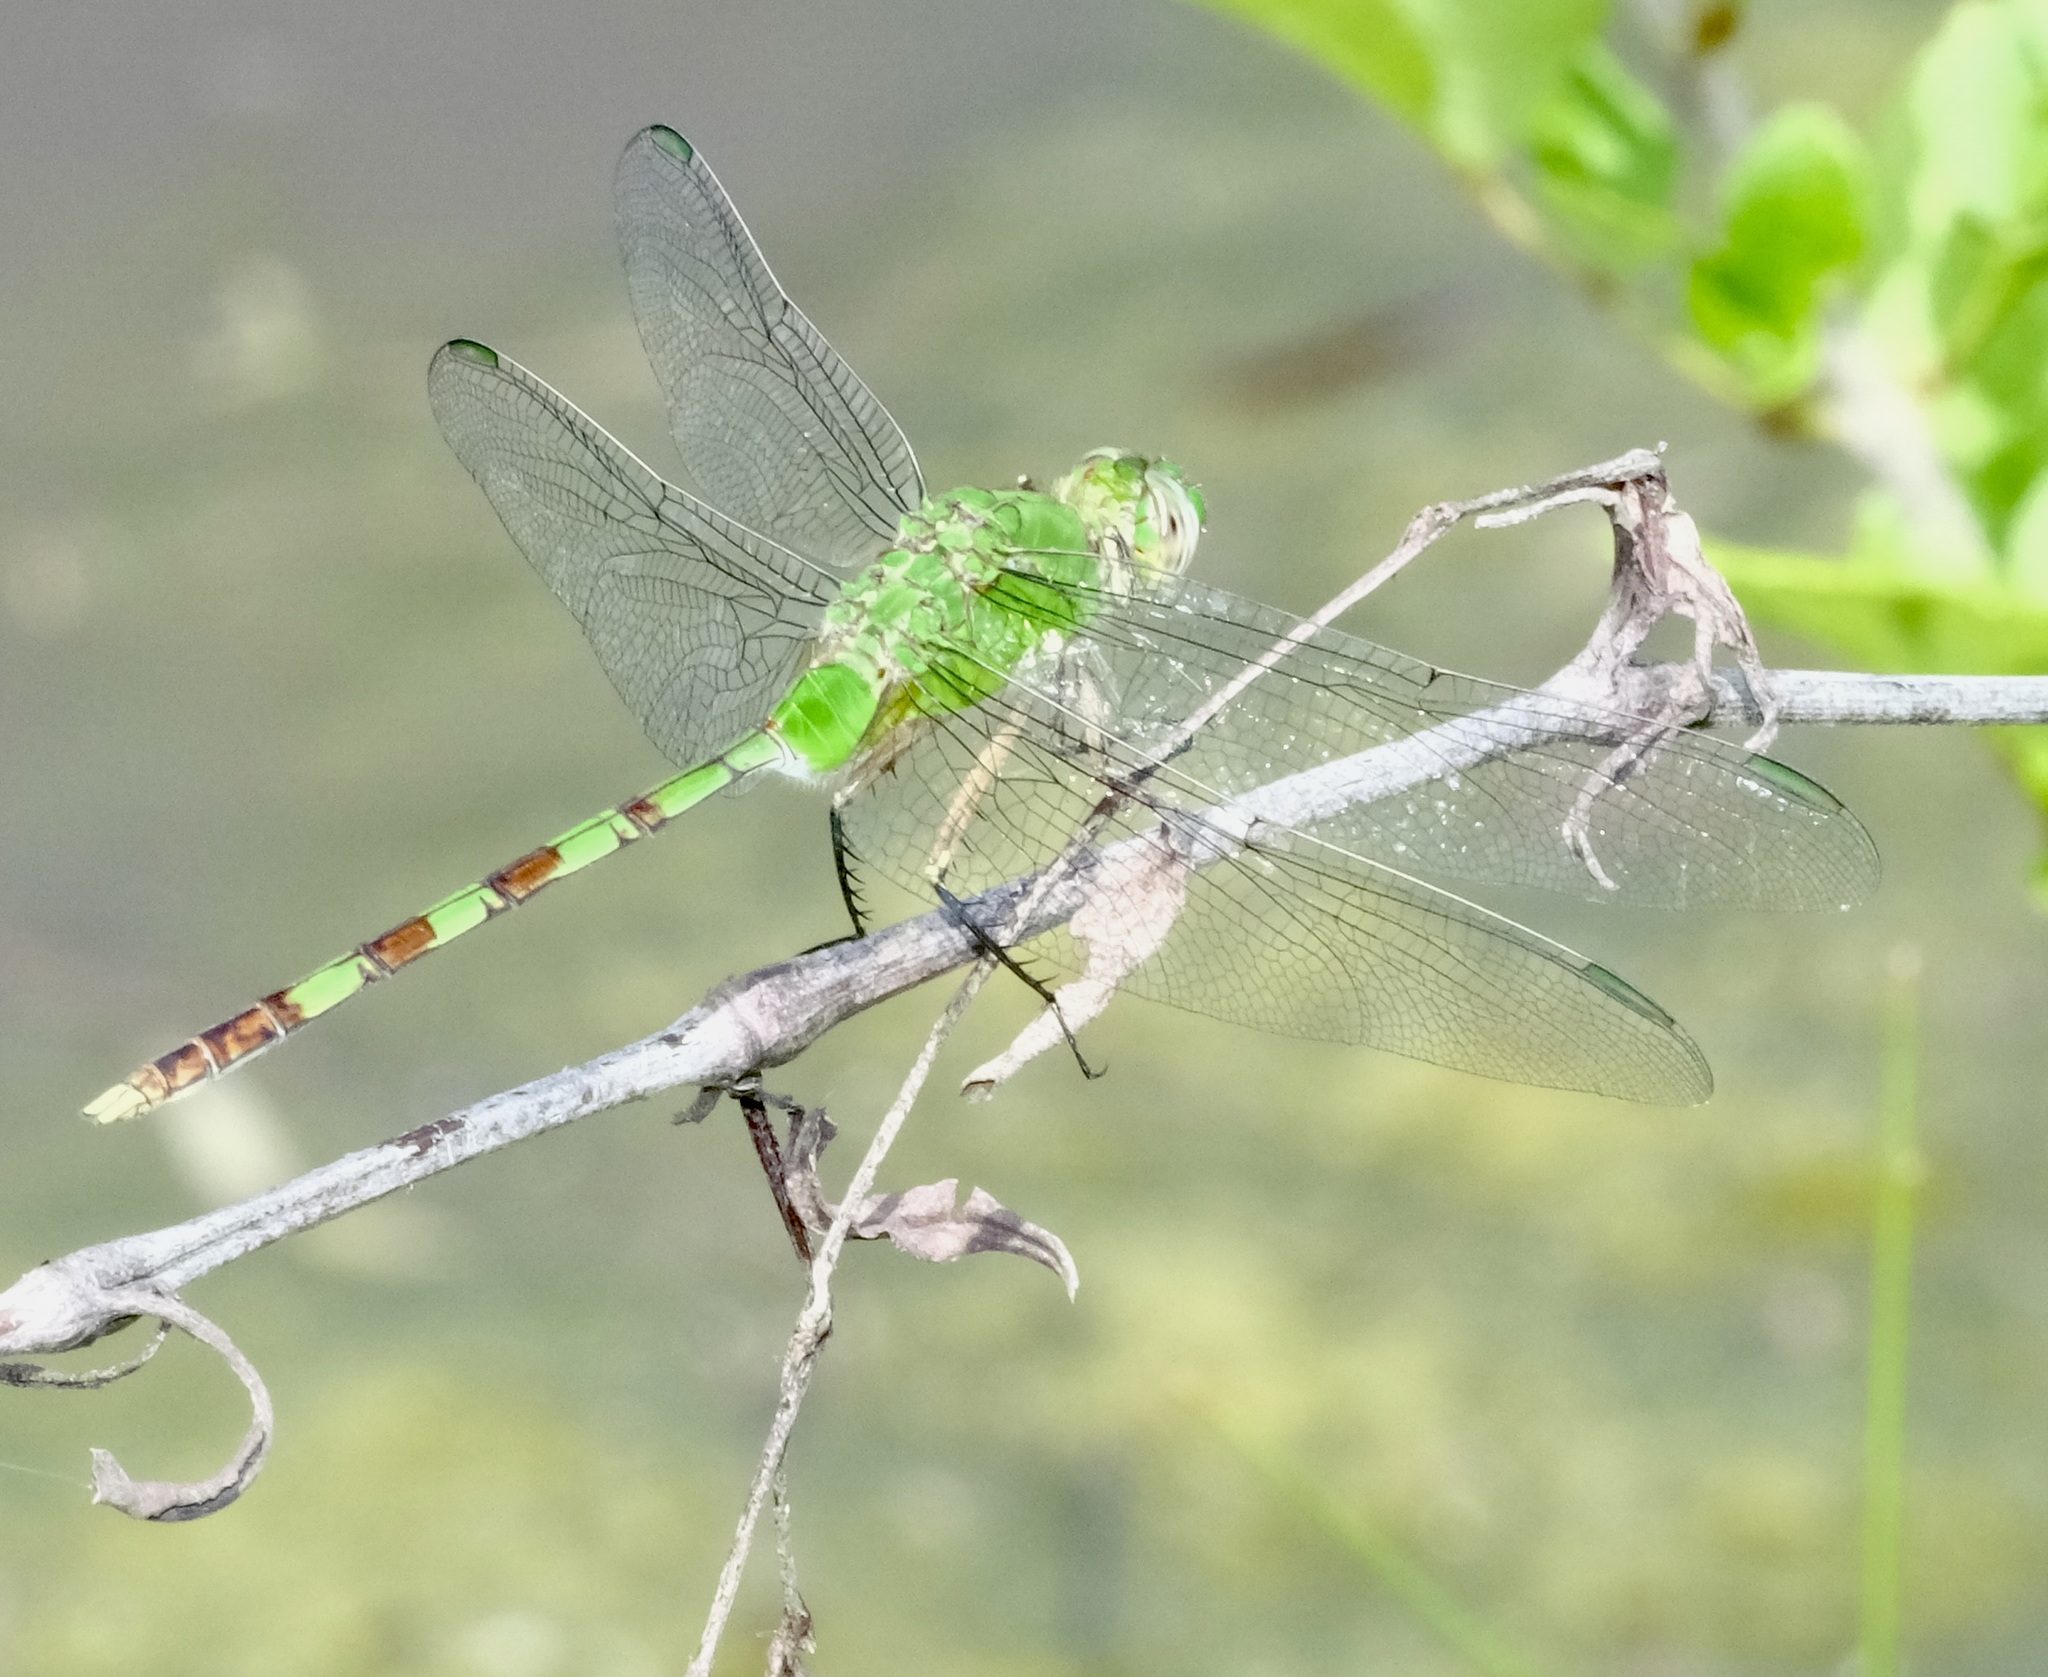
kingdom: Animalia
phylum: Arthropoda
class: Insecta
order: Odonata
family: Libellulidae
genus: Erythemis
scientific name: Erythemis vesiculosa
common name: Great pondhawk
